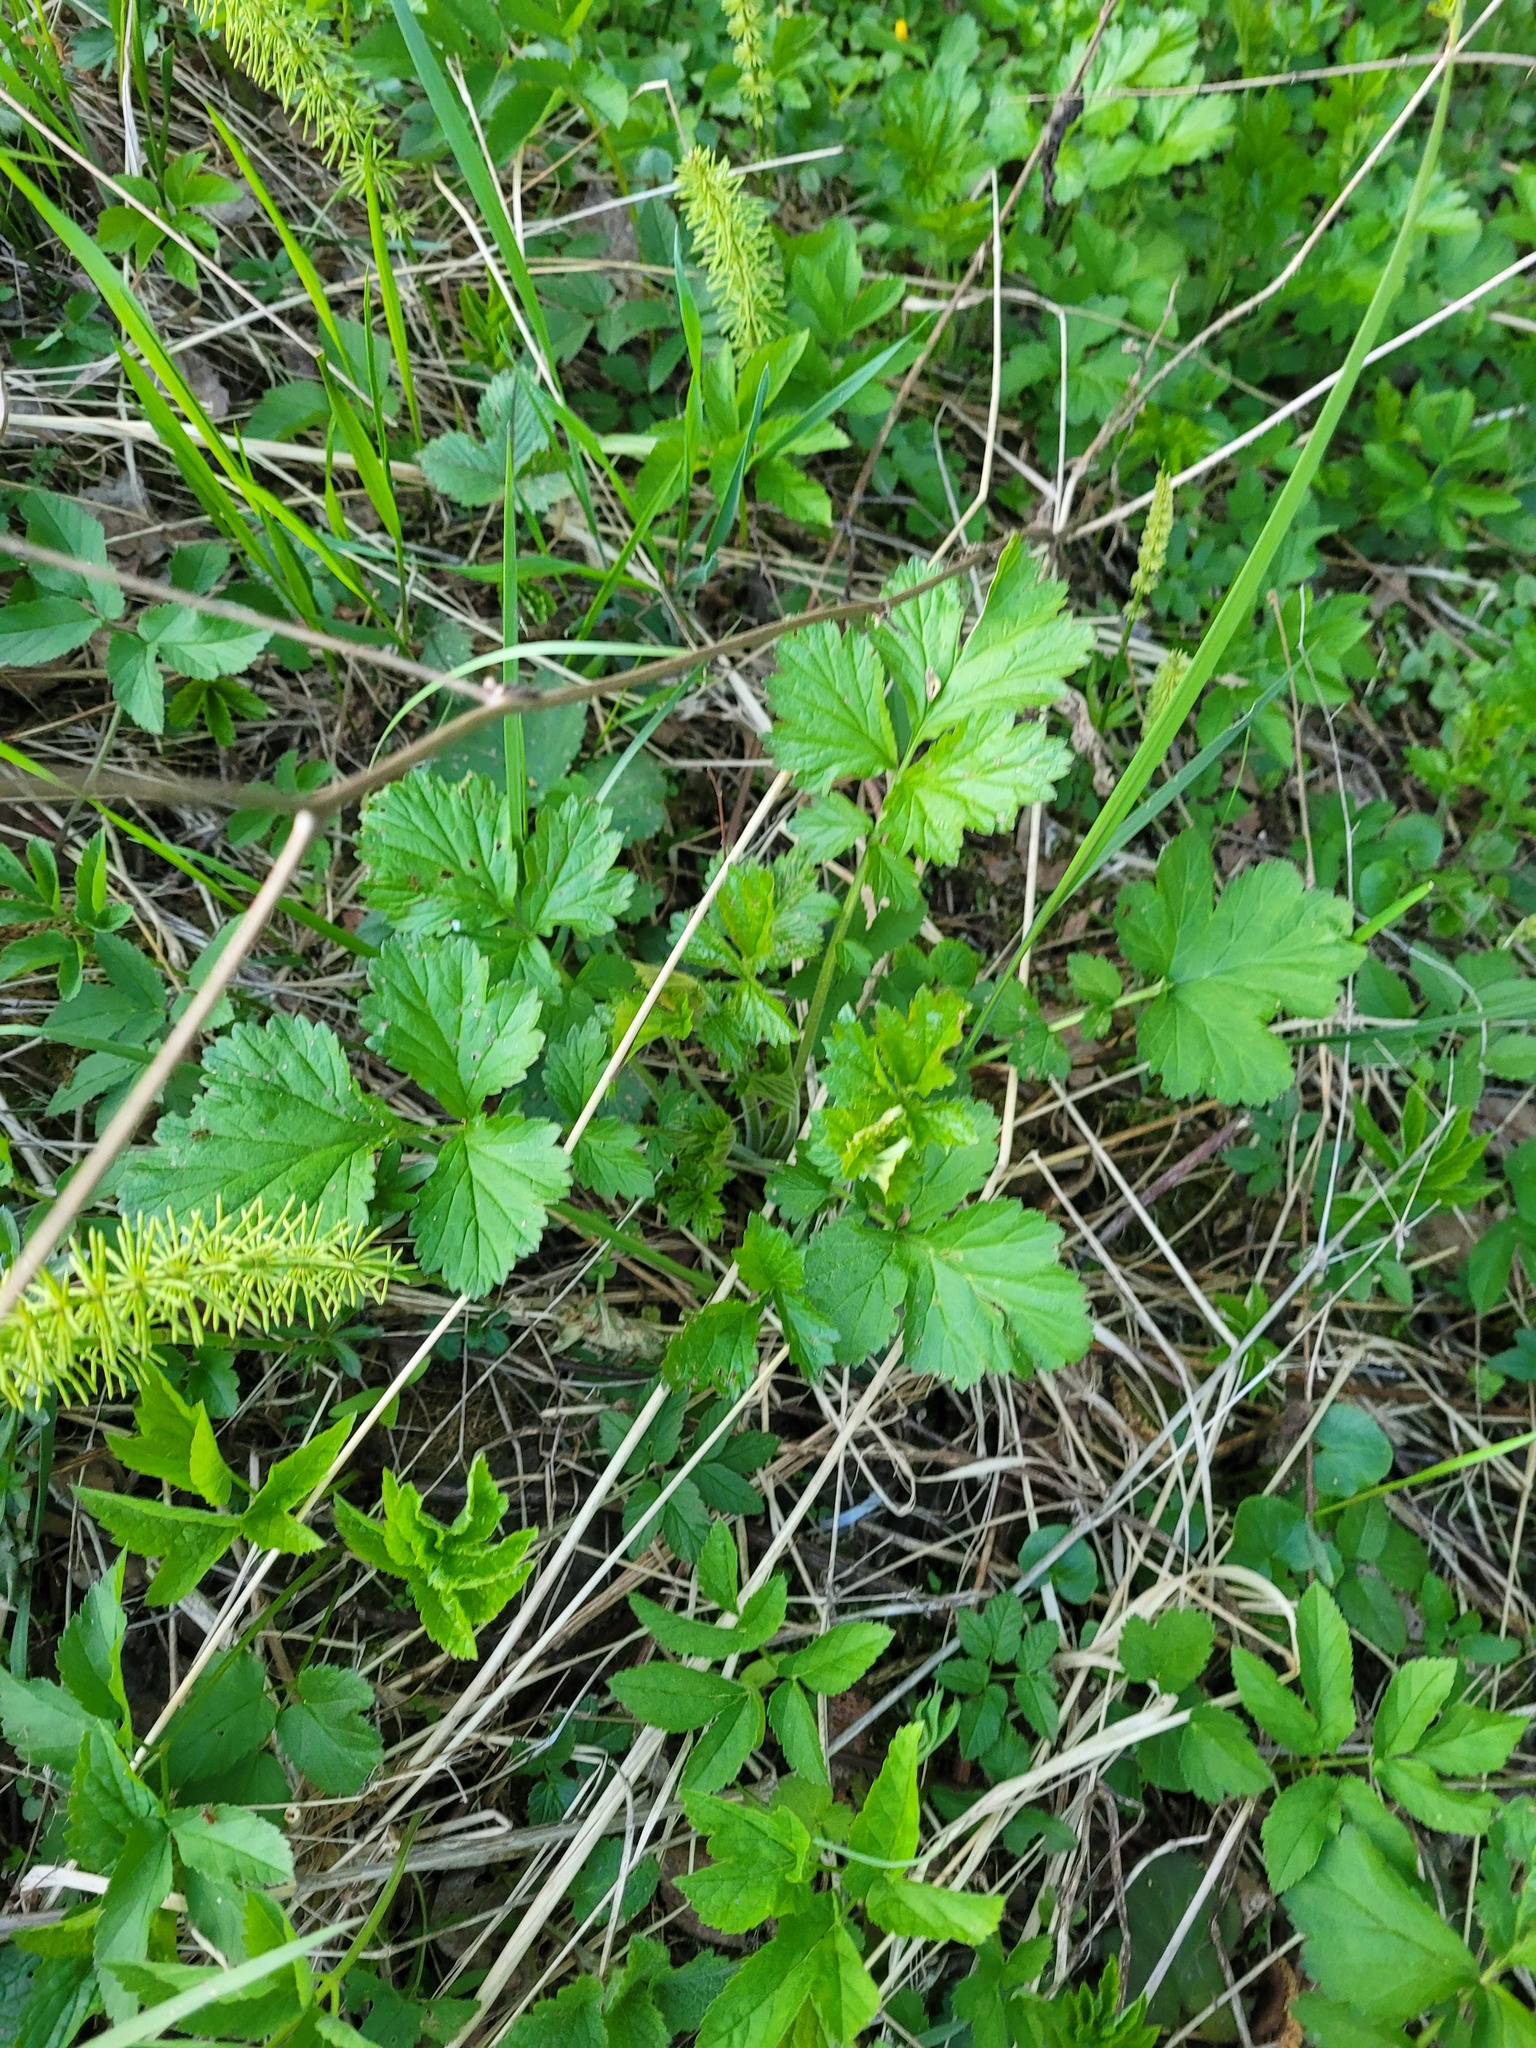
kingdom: Plantae
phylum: Tracheophyta
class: Magnoliopsida
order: Rosales
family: Rosaceae
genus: Geum
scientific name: Geum rivale
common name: Water avens
